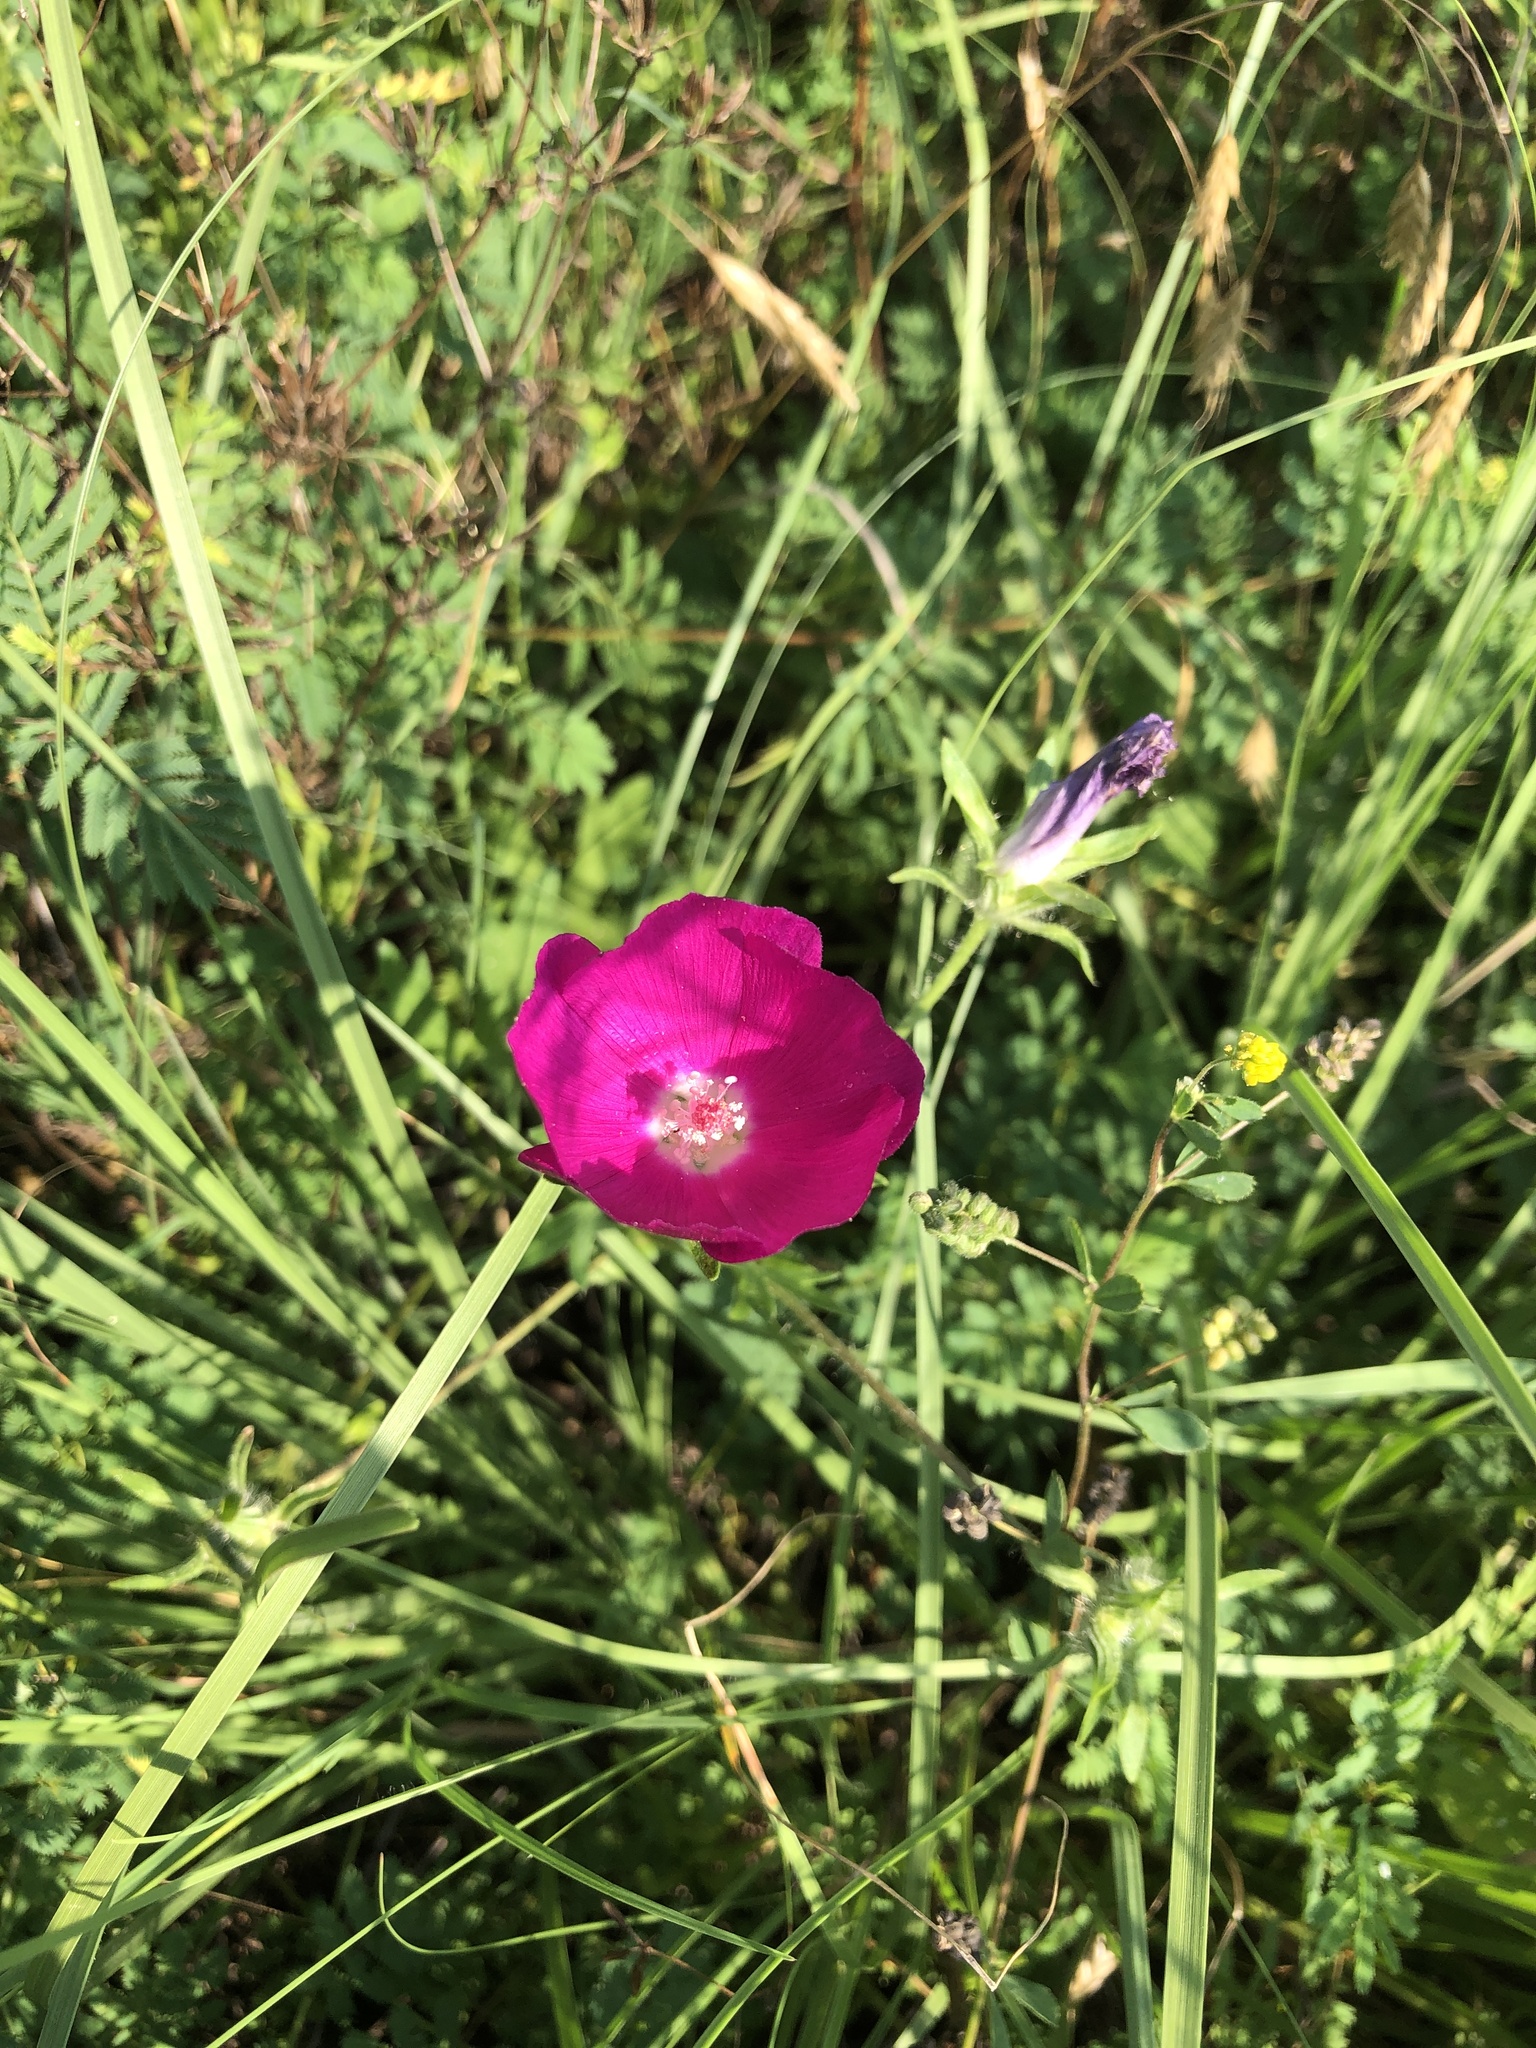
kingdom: Plantae
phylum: Tracheophyta
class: Magnoliopsida
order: Malvales
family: Malvaceae
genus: Callirhoe
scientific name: Callirhoe involucrata
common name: Purple poppy-mallow
